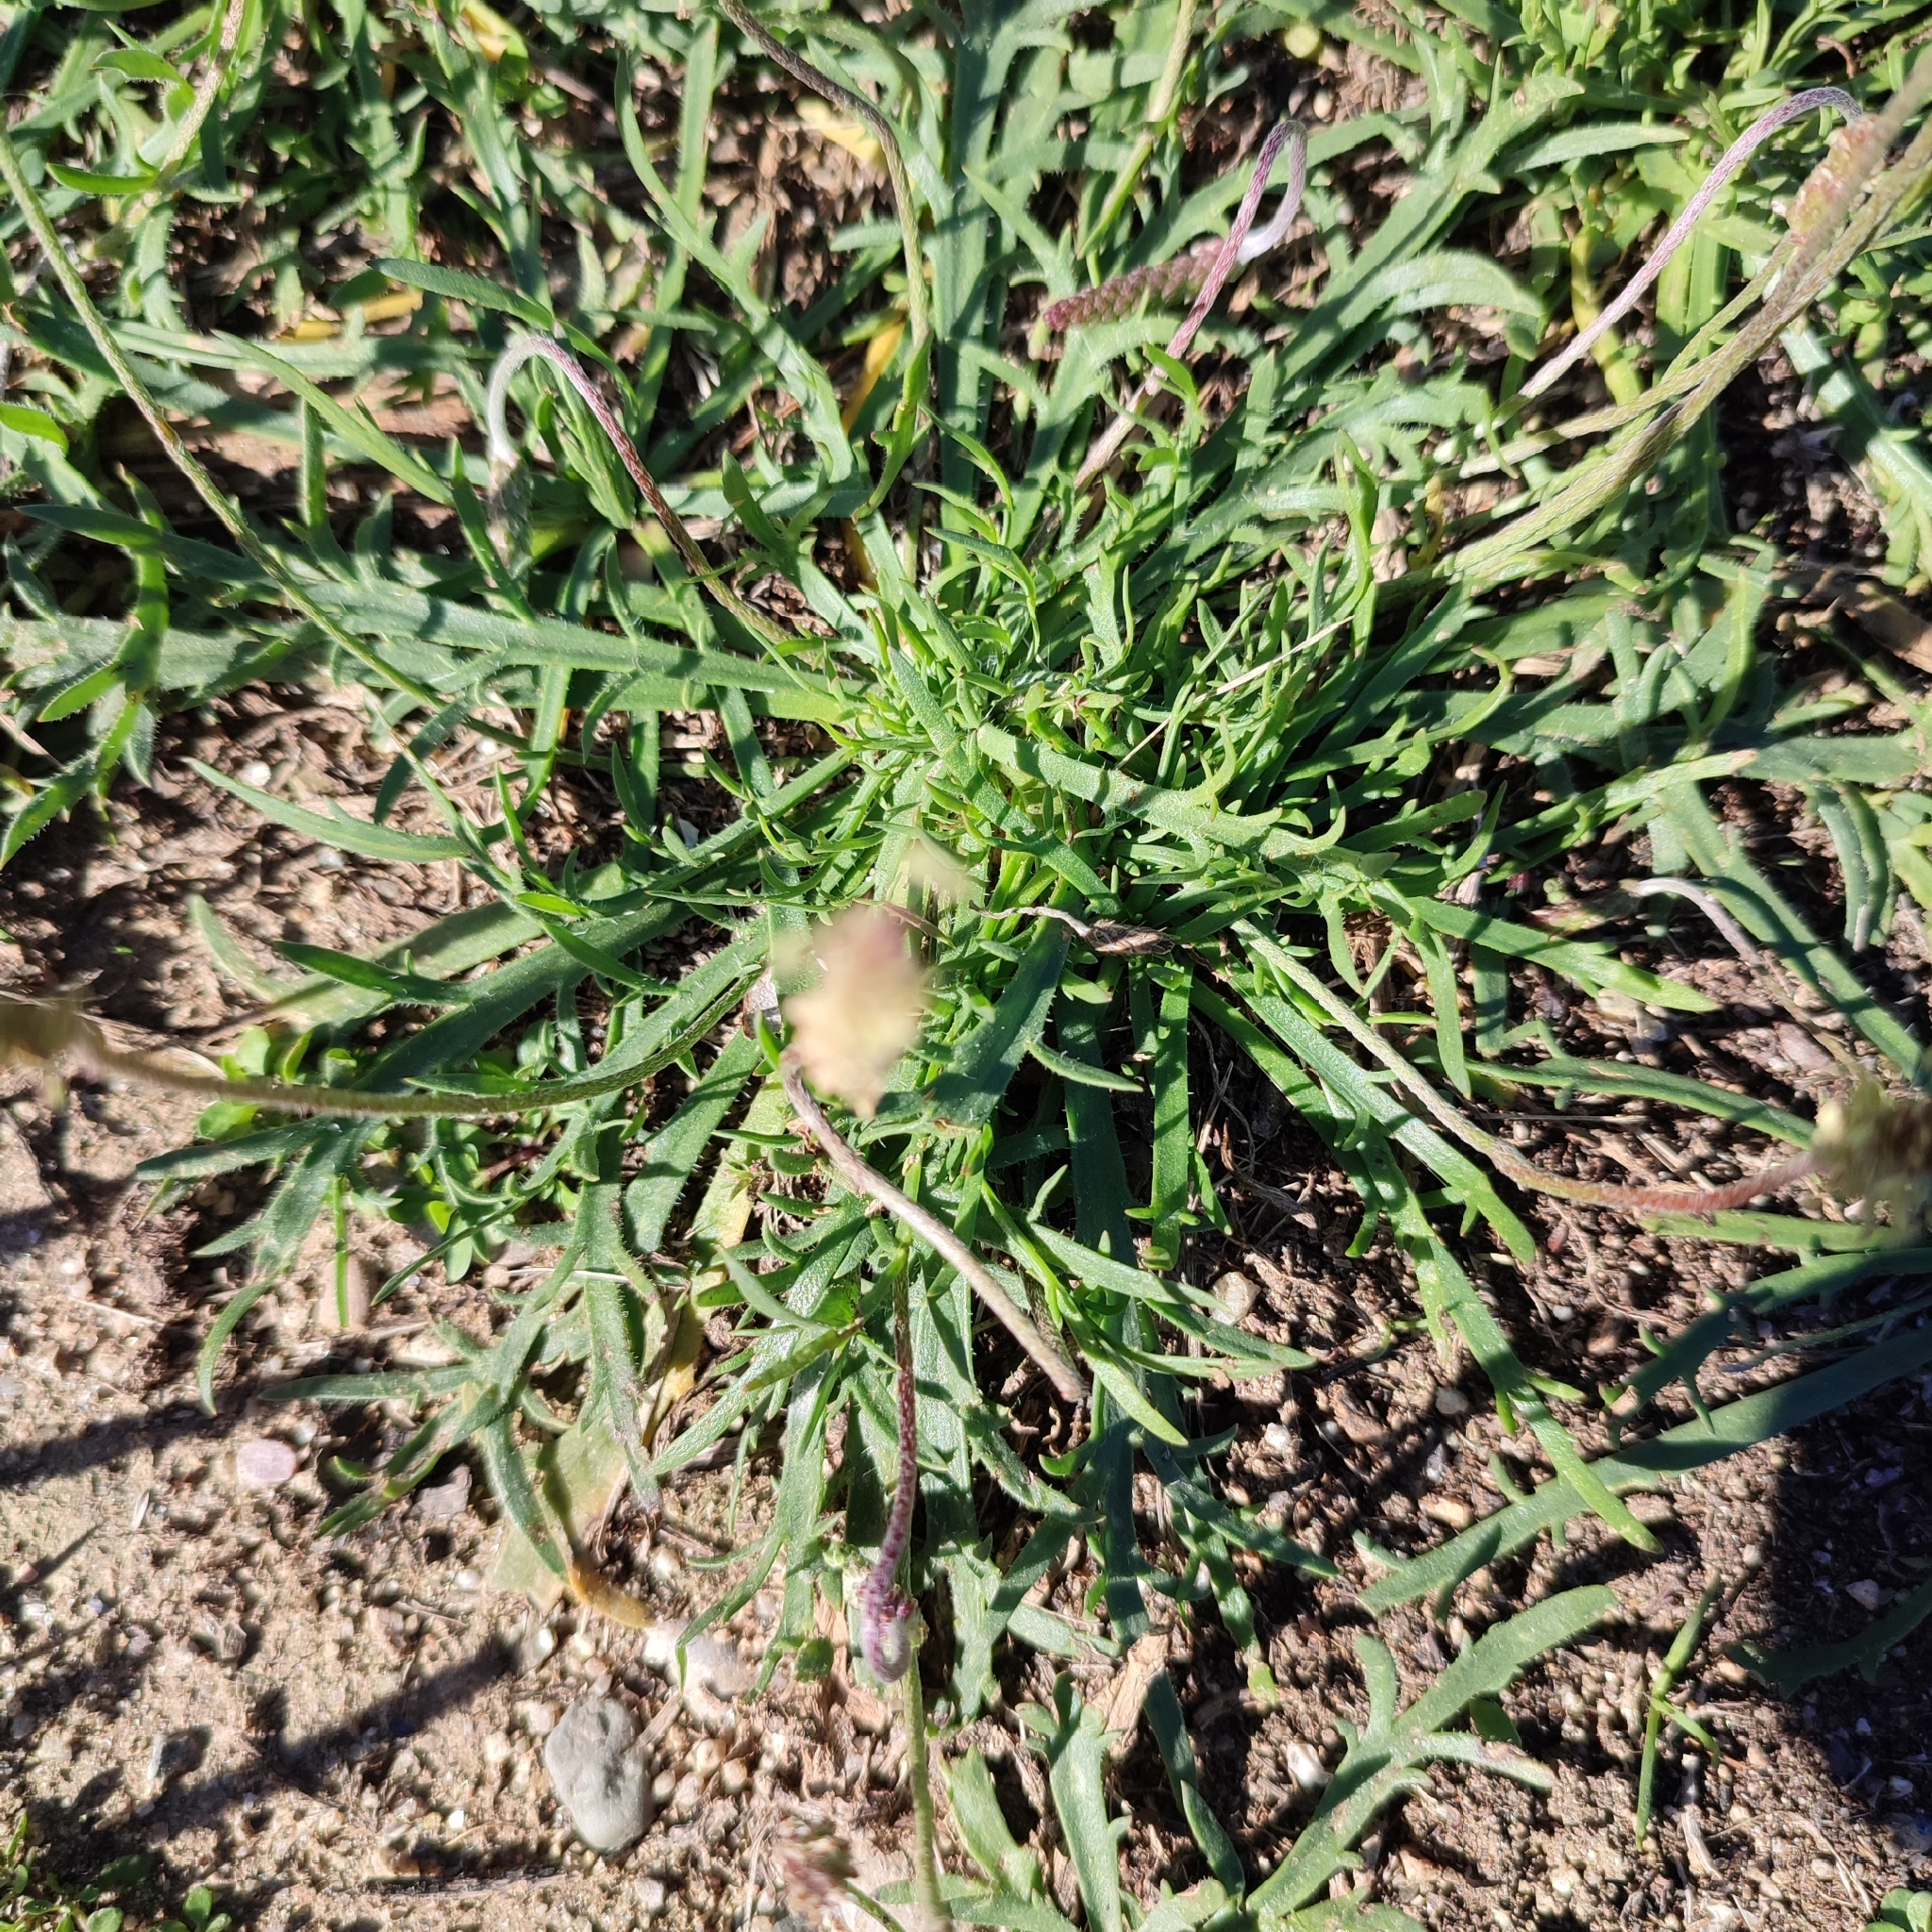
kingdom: Plantae
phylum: Tracheophyta
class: Magnoliopsida
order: Lamiales
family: Plantaginaceae
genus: Plantago
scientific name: Plantago coronopus
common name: Buck's-horn plantain
